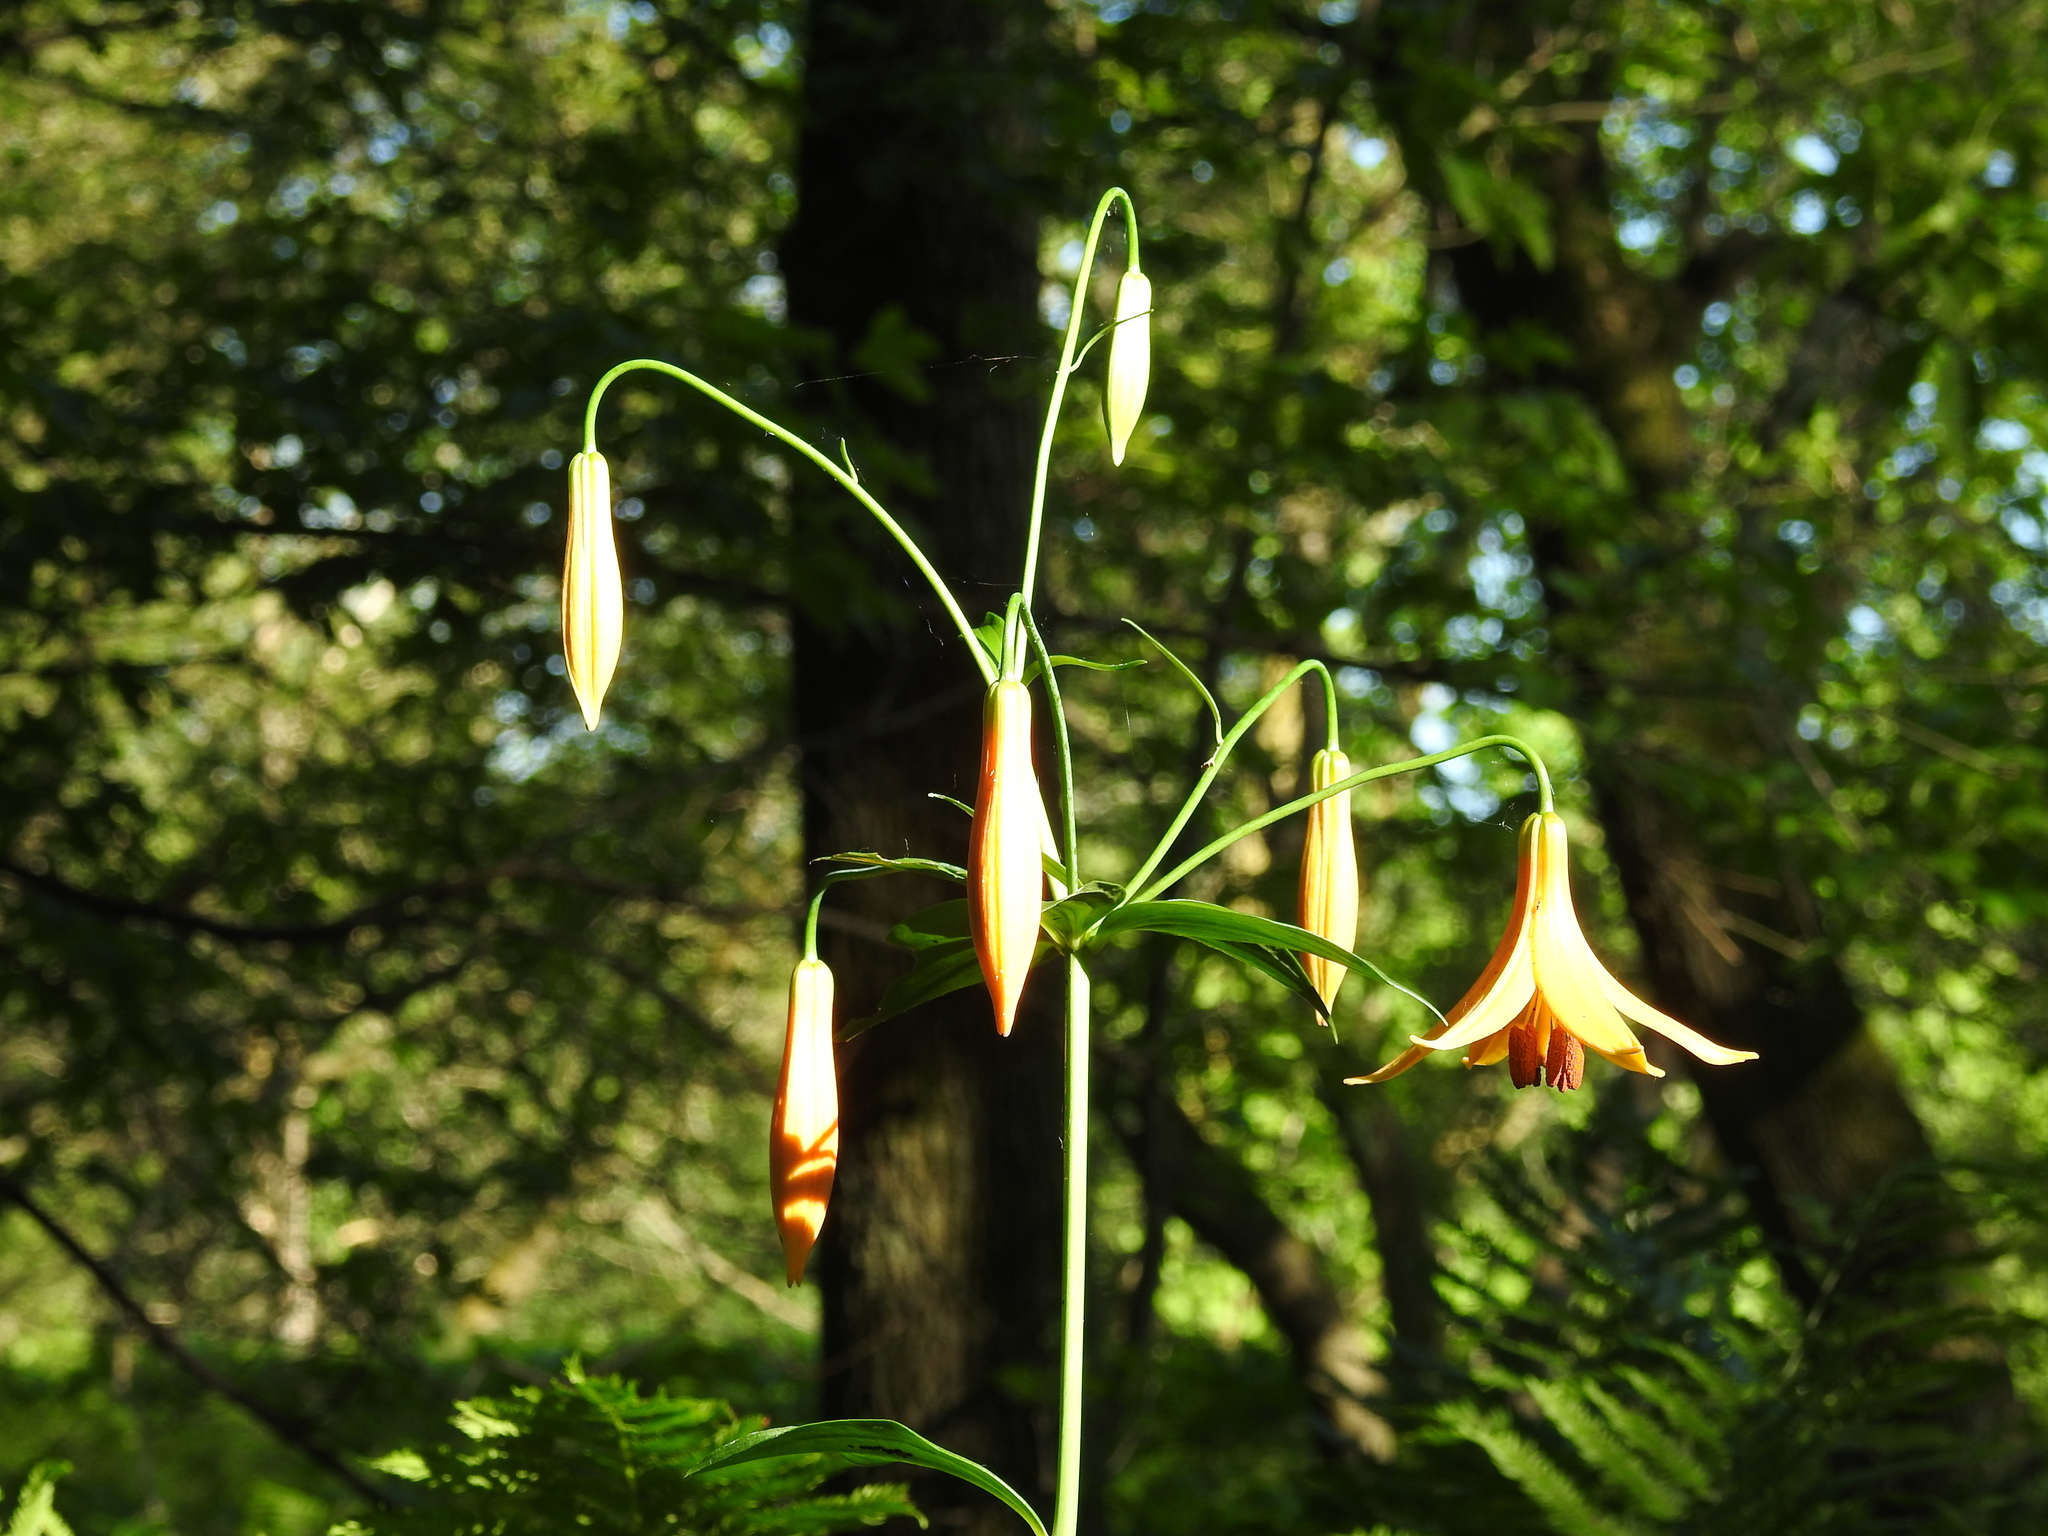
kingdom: Plantae
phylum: Tracheophyta
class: Liliopsida
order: Liliales
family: Liliaceae
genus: Lilium
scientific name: Lilium canadense
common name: Canada lily
